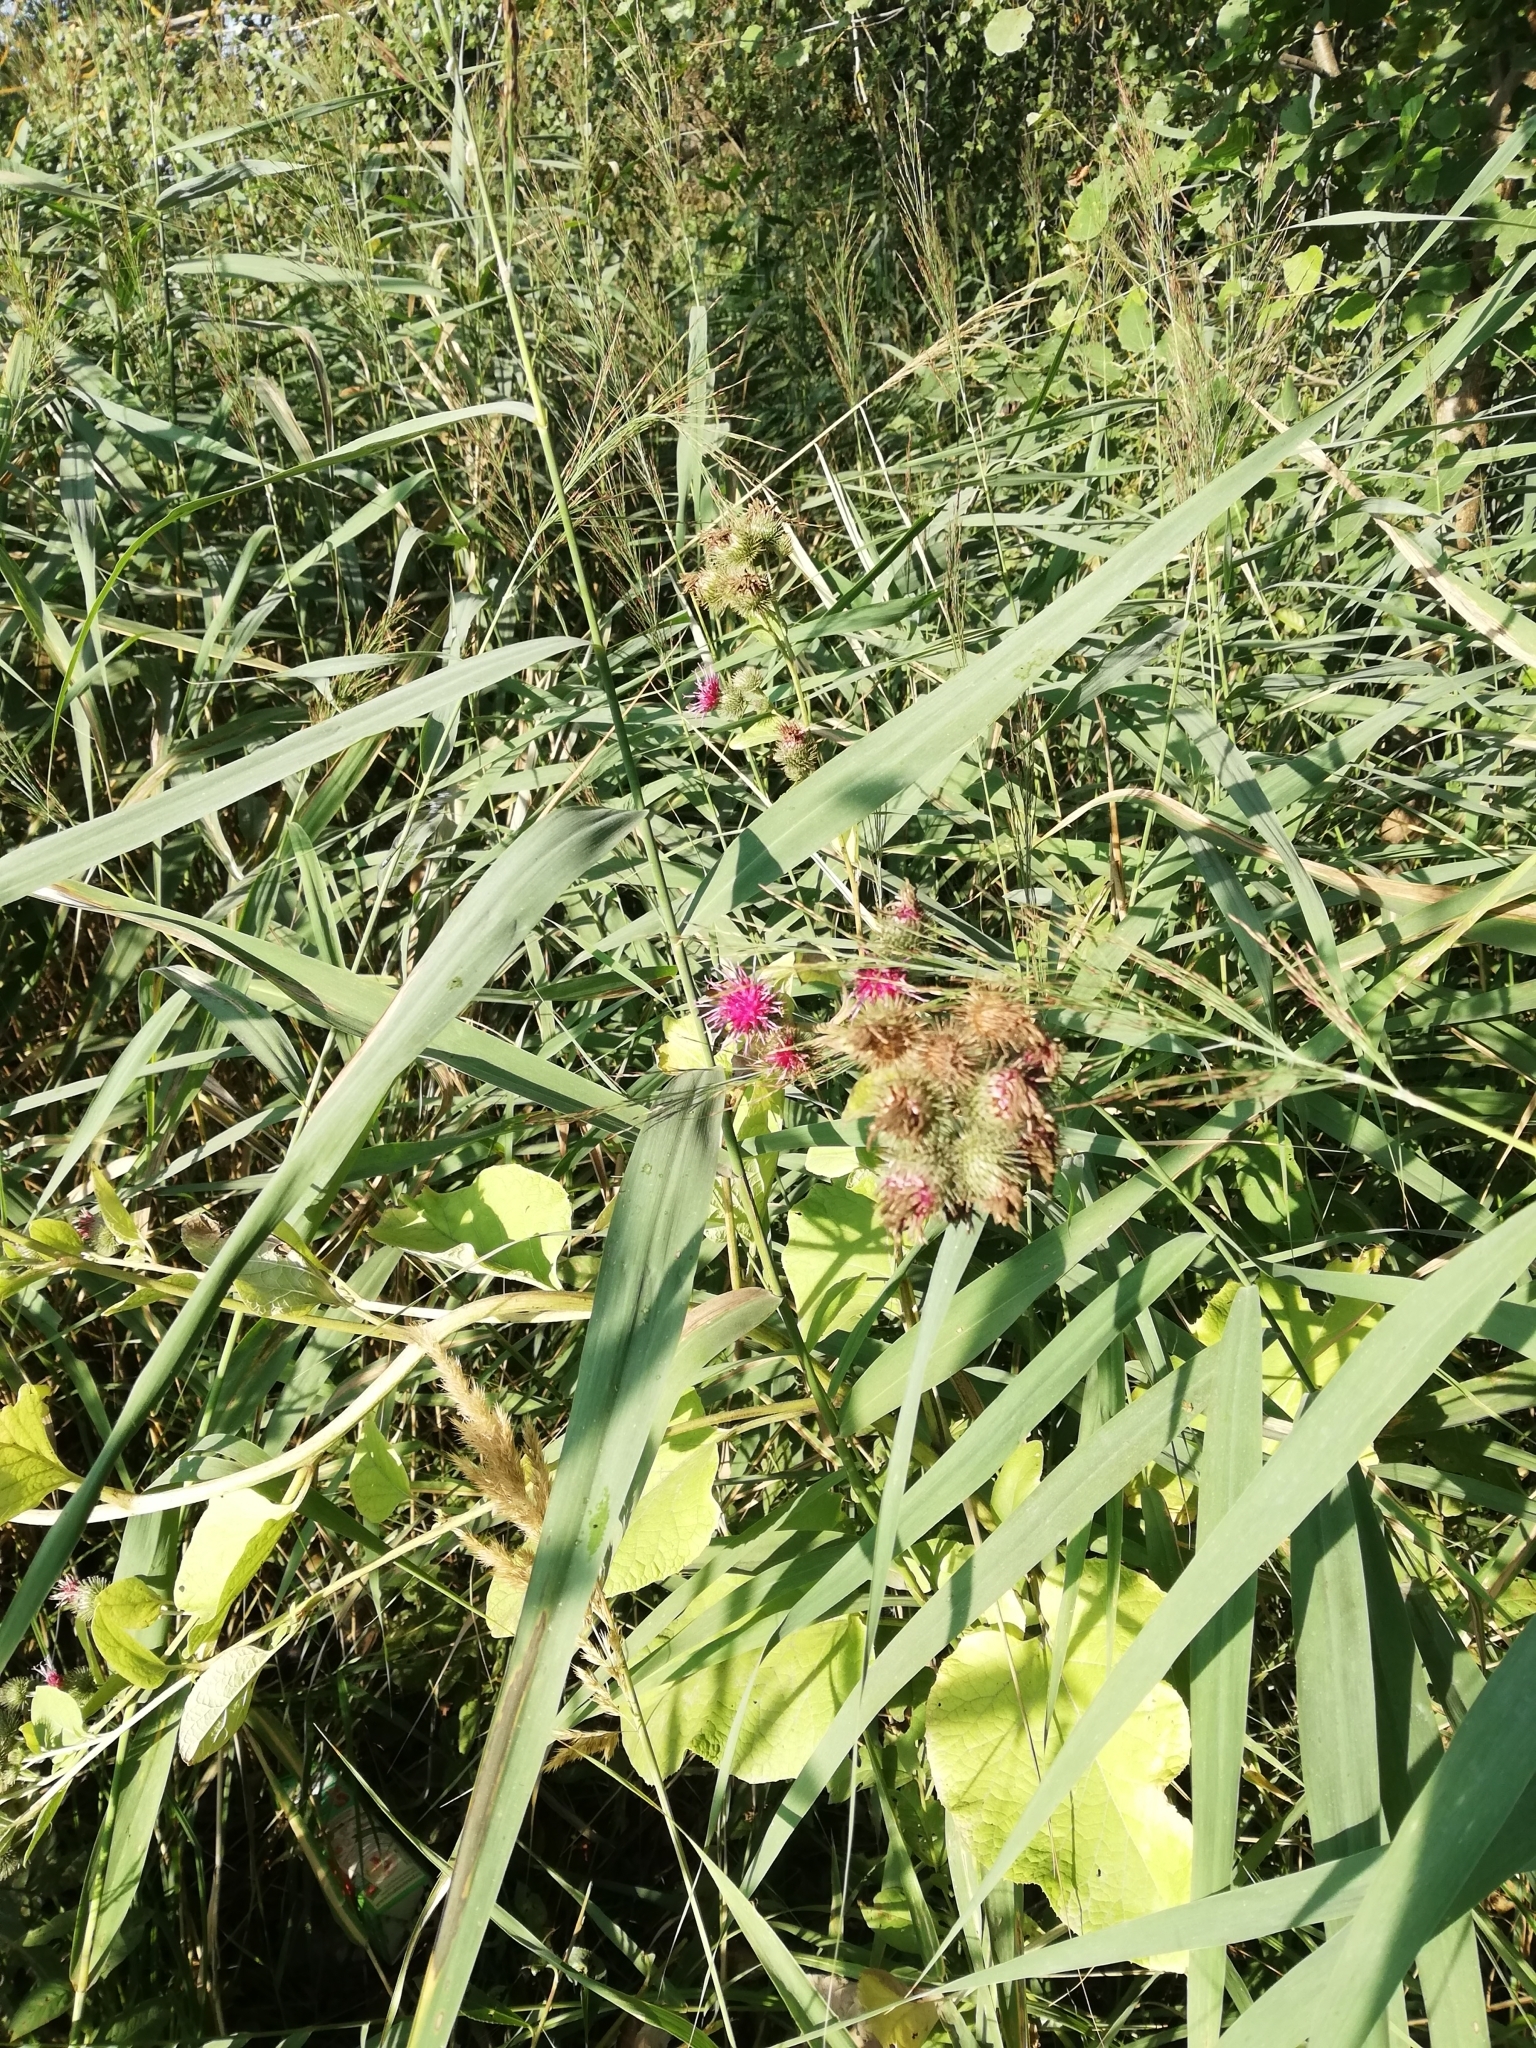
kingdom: Plantae
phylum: Tracheophyta
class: Magnoliopsida
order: Asterales
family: Asteraceae
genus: Arctium
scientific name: Arctium minus
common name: Lesser burdock
